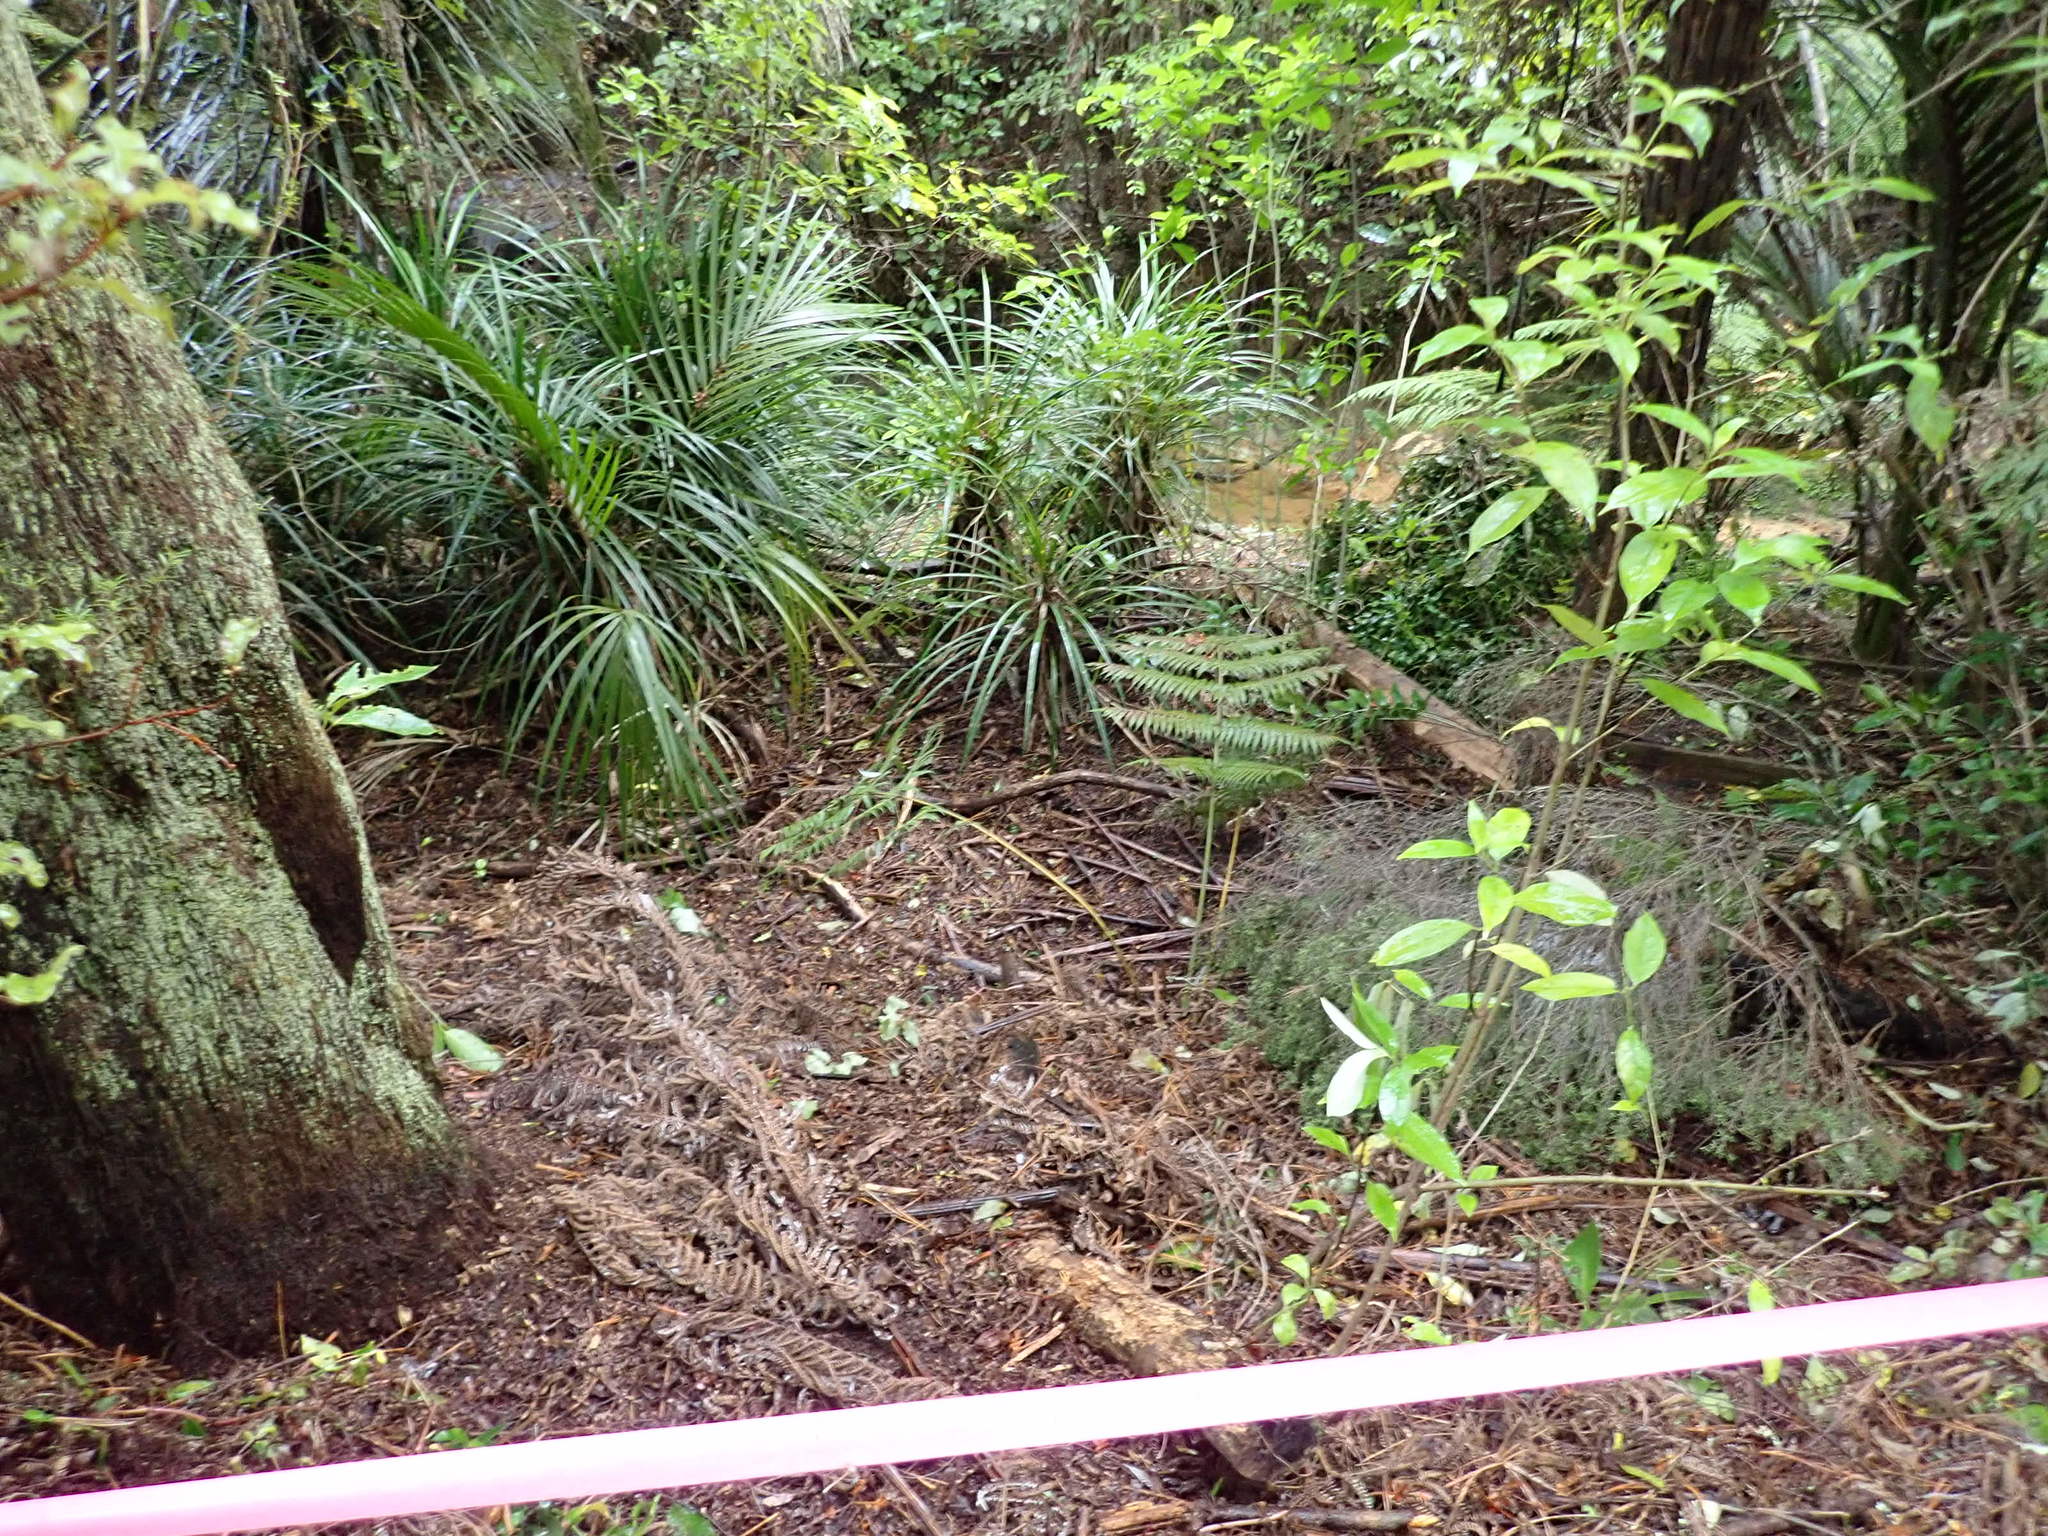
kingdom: Plantae
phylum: Tracheophyta
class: Magnoliopsida
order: Gentianales
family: Loganiaceae
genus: Geniostoma
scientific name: Geniostoma ligustrifolium
